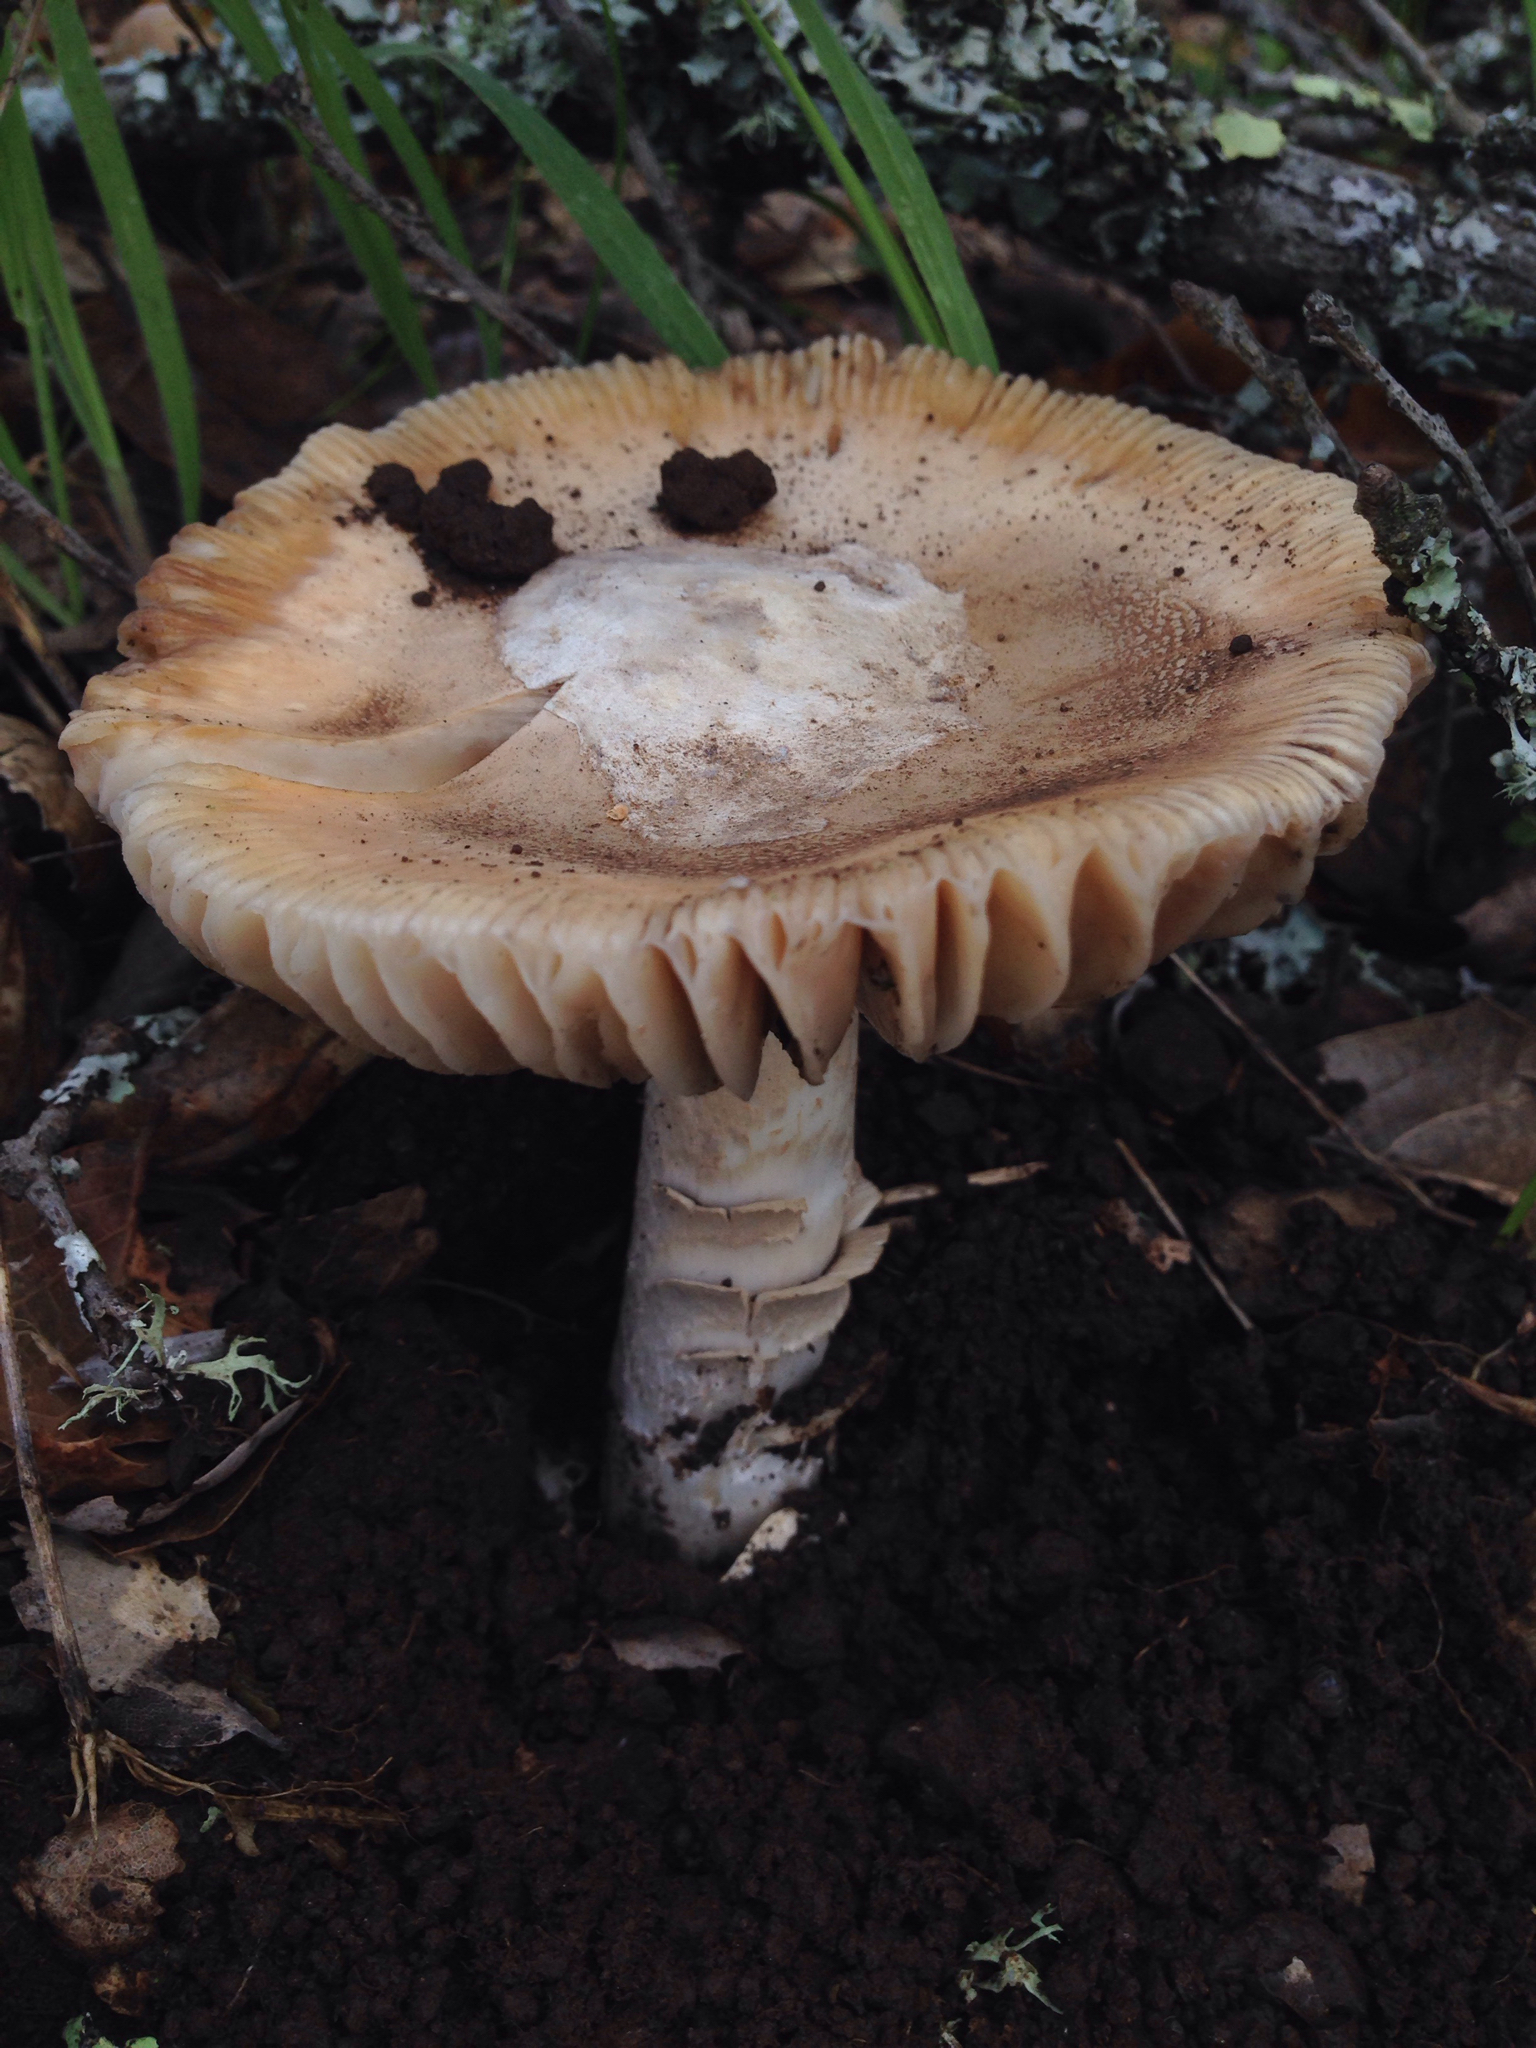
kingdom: Fungi
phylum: Basidiomycota
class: Agaricomycetes
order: Agaricales
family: Amanitaceae
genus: Amanita
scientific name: Amanita velosa
